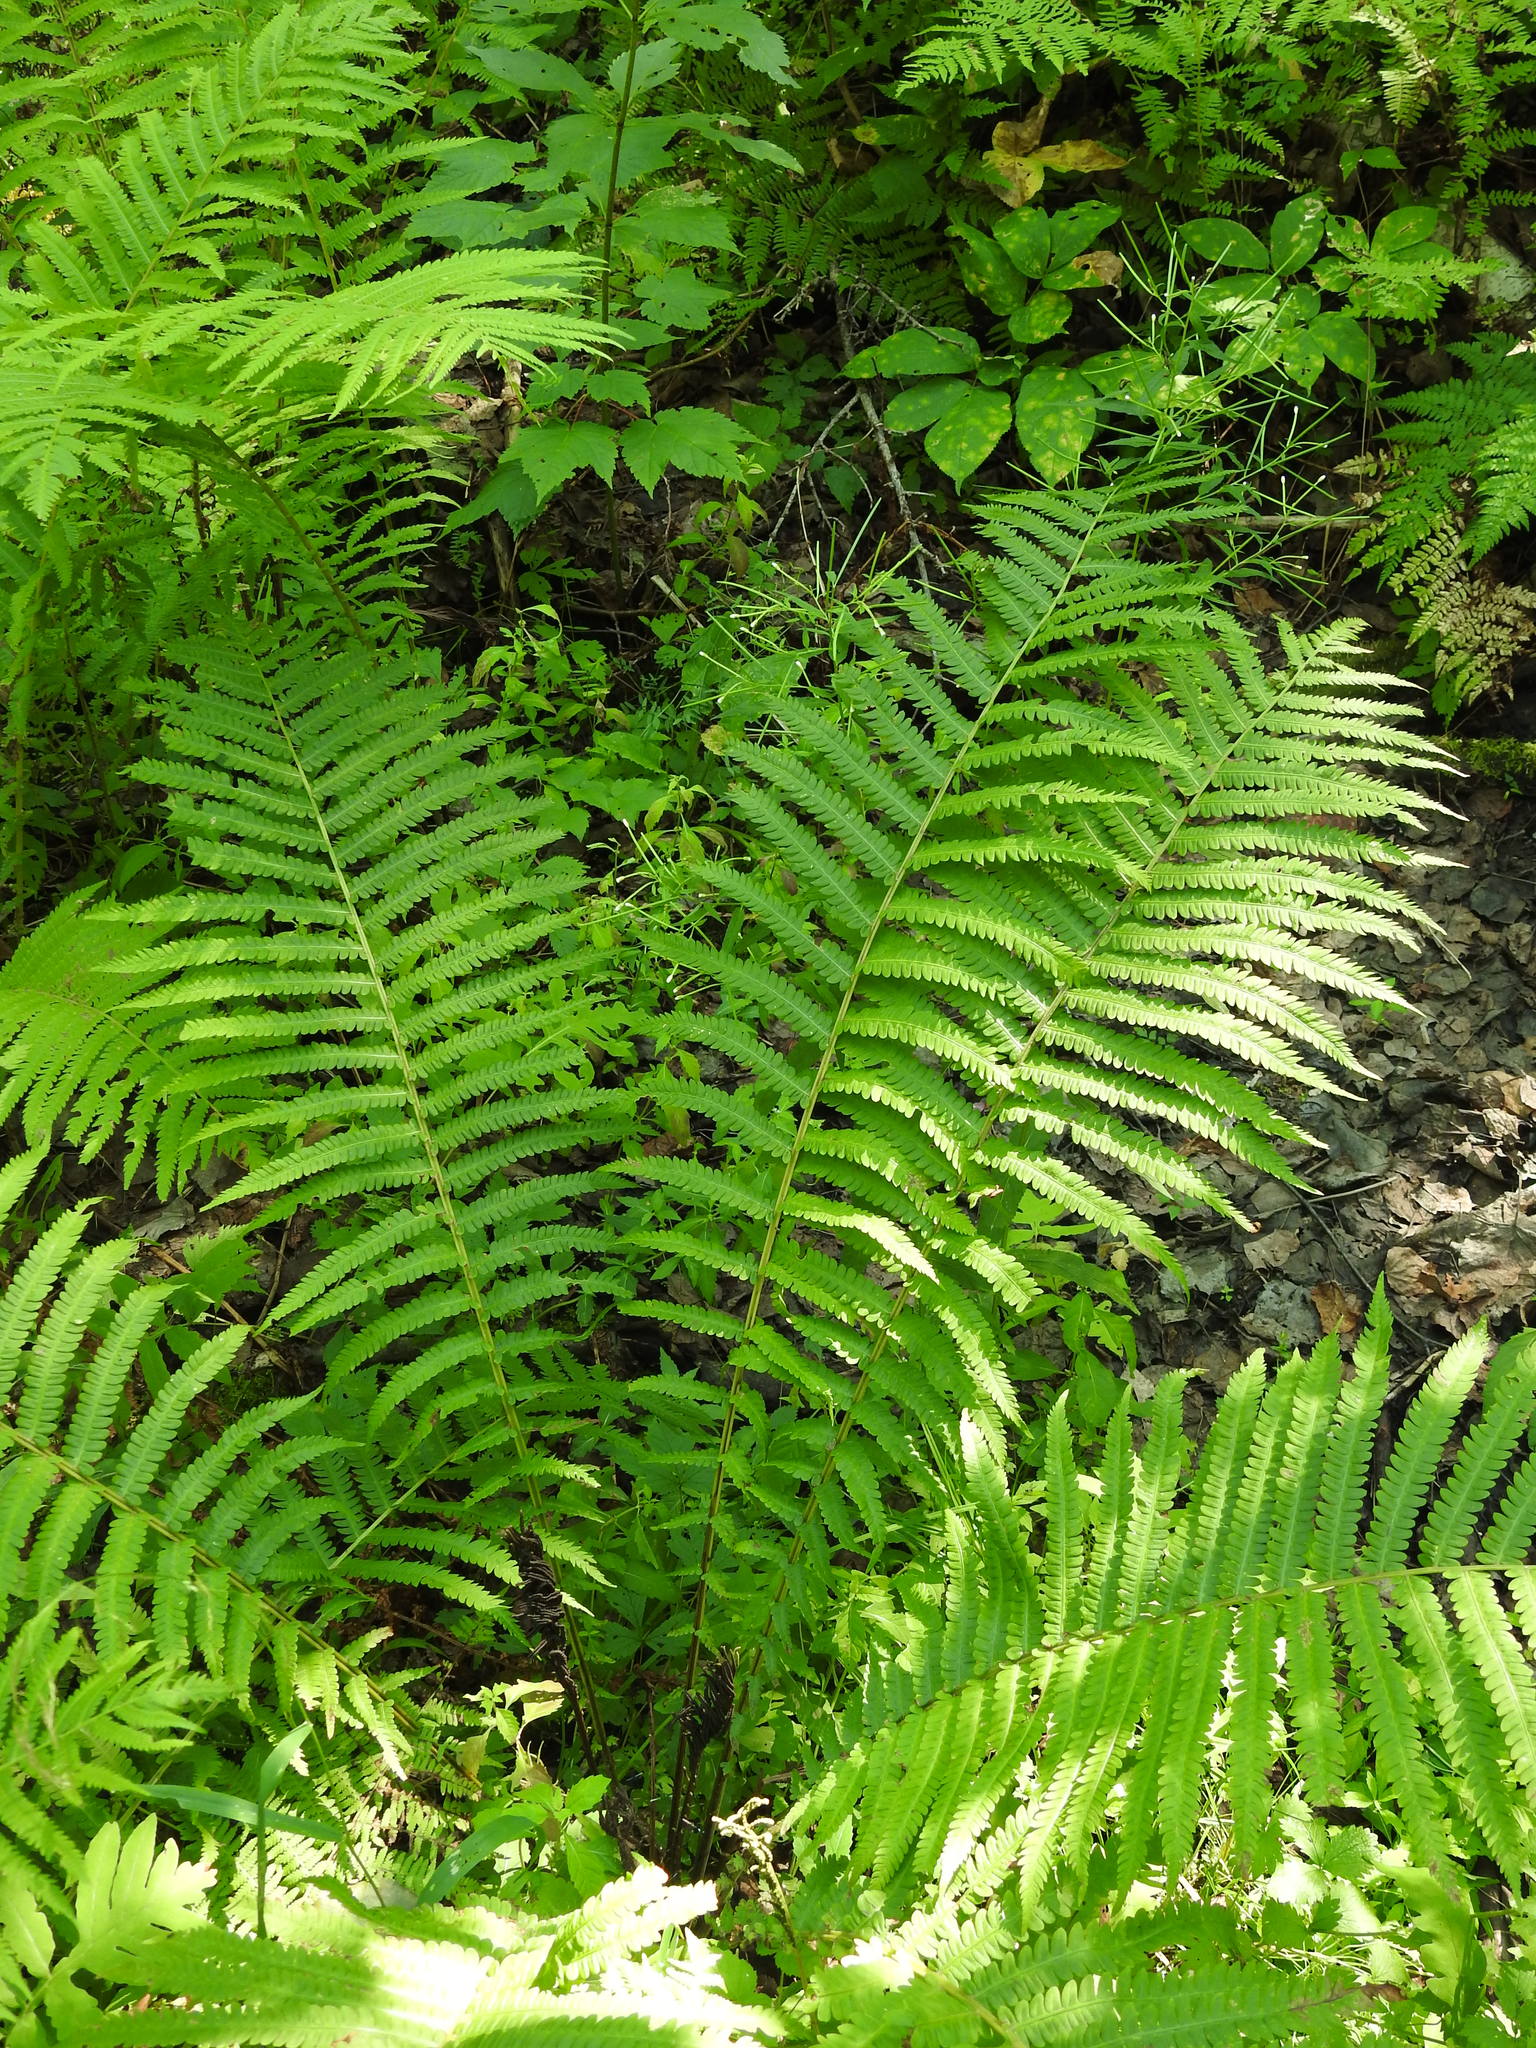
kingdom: Plantae
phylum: Tracheophyta
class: Polypodiopsida
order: Polypodiales
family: Onocleaceae
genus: Matteuccia
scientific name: Matteuccia struthiopteris
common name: Ostrich fern
